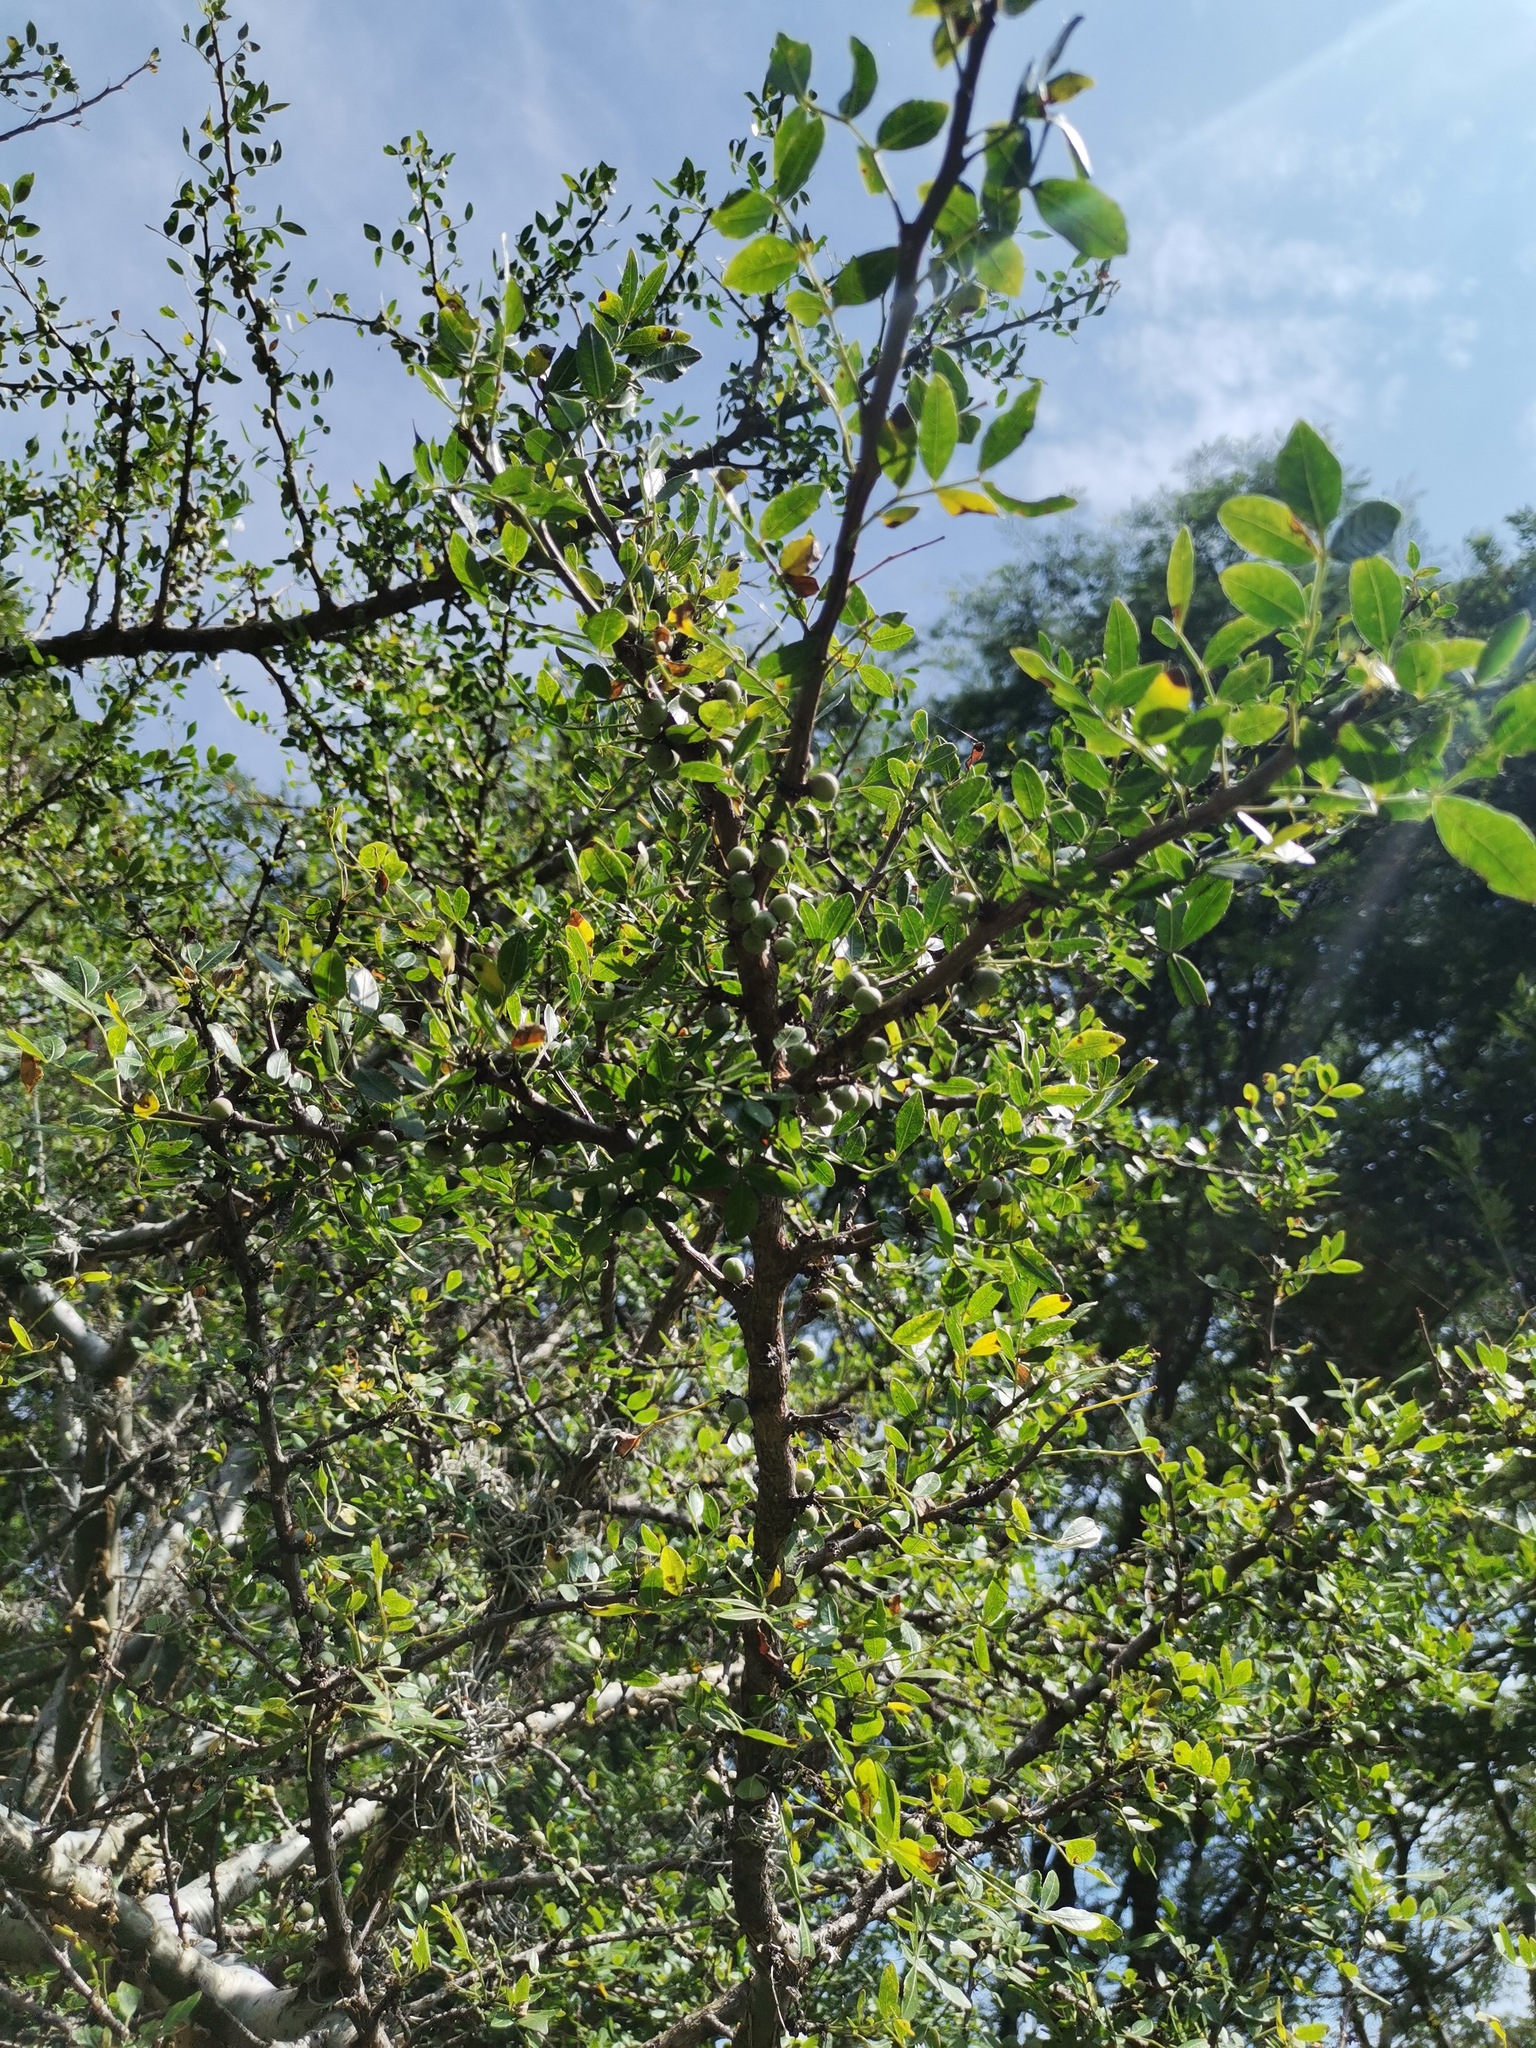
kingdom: Plantae
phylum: Tracheophyta
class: Magnoliopsida
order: Sapindales
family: Burseraceae
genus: Bursera
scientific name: Bursera fagaroides
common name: Elephant tree
